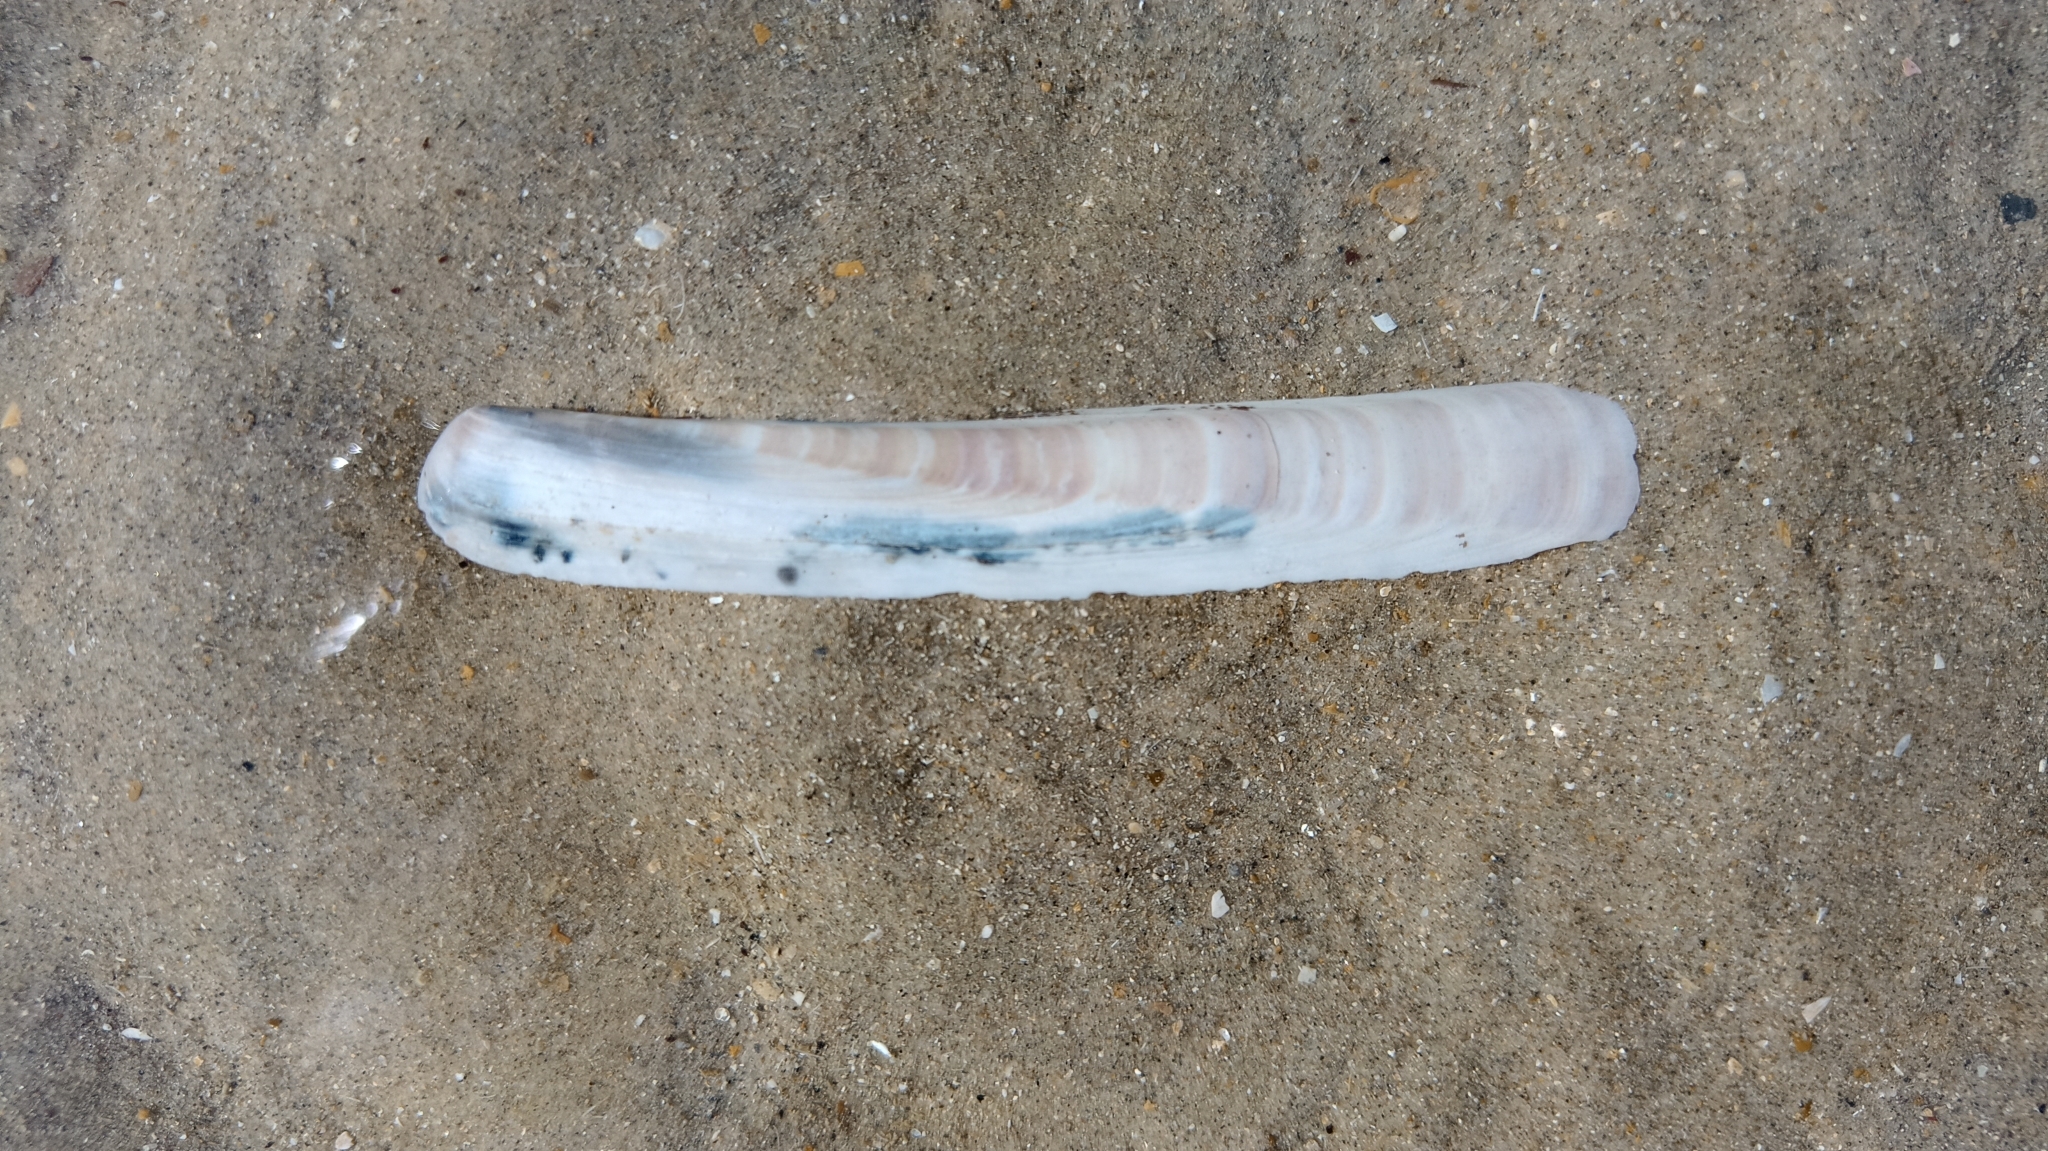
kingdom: Animalia
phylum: Mollusca
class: Bivalvia
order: Adapedonta
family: Pharidae
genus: Ensis
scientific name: Ensis leei
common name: American jack knife clam
